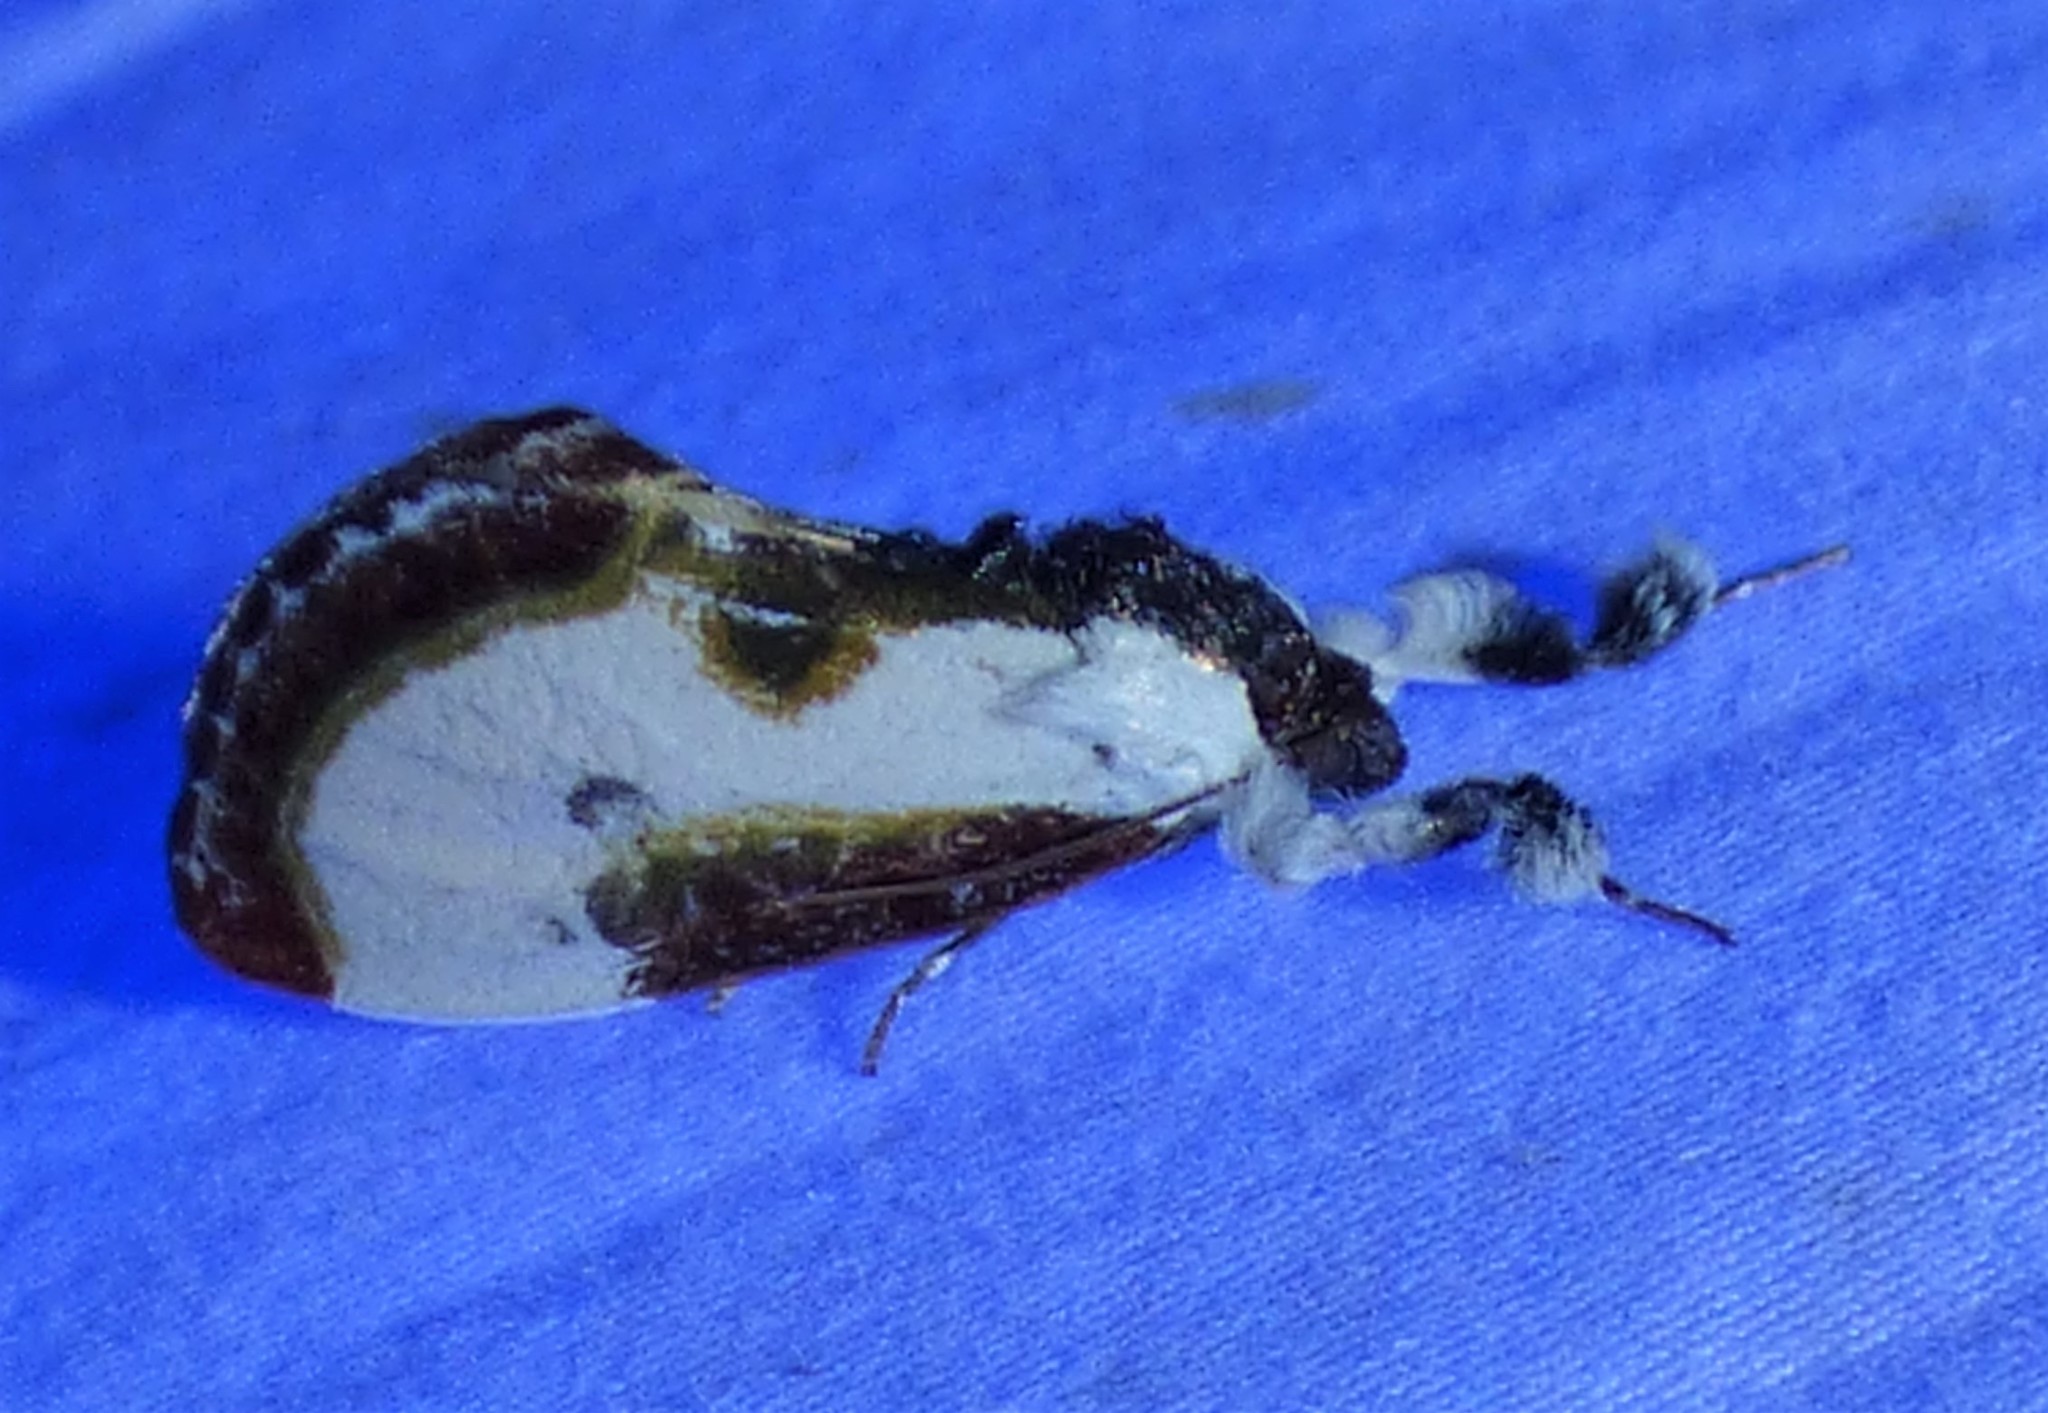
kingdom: Animalia
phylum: Arthropoda
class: Insecta
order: Lepidoptera
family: Noctuidae
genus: Eudryas
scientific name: Eudryas grata
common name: Beautiful wood-nymph
